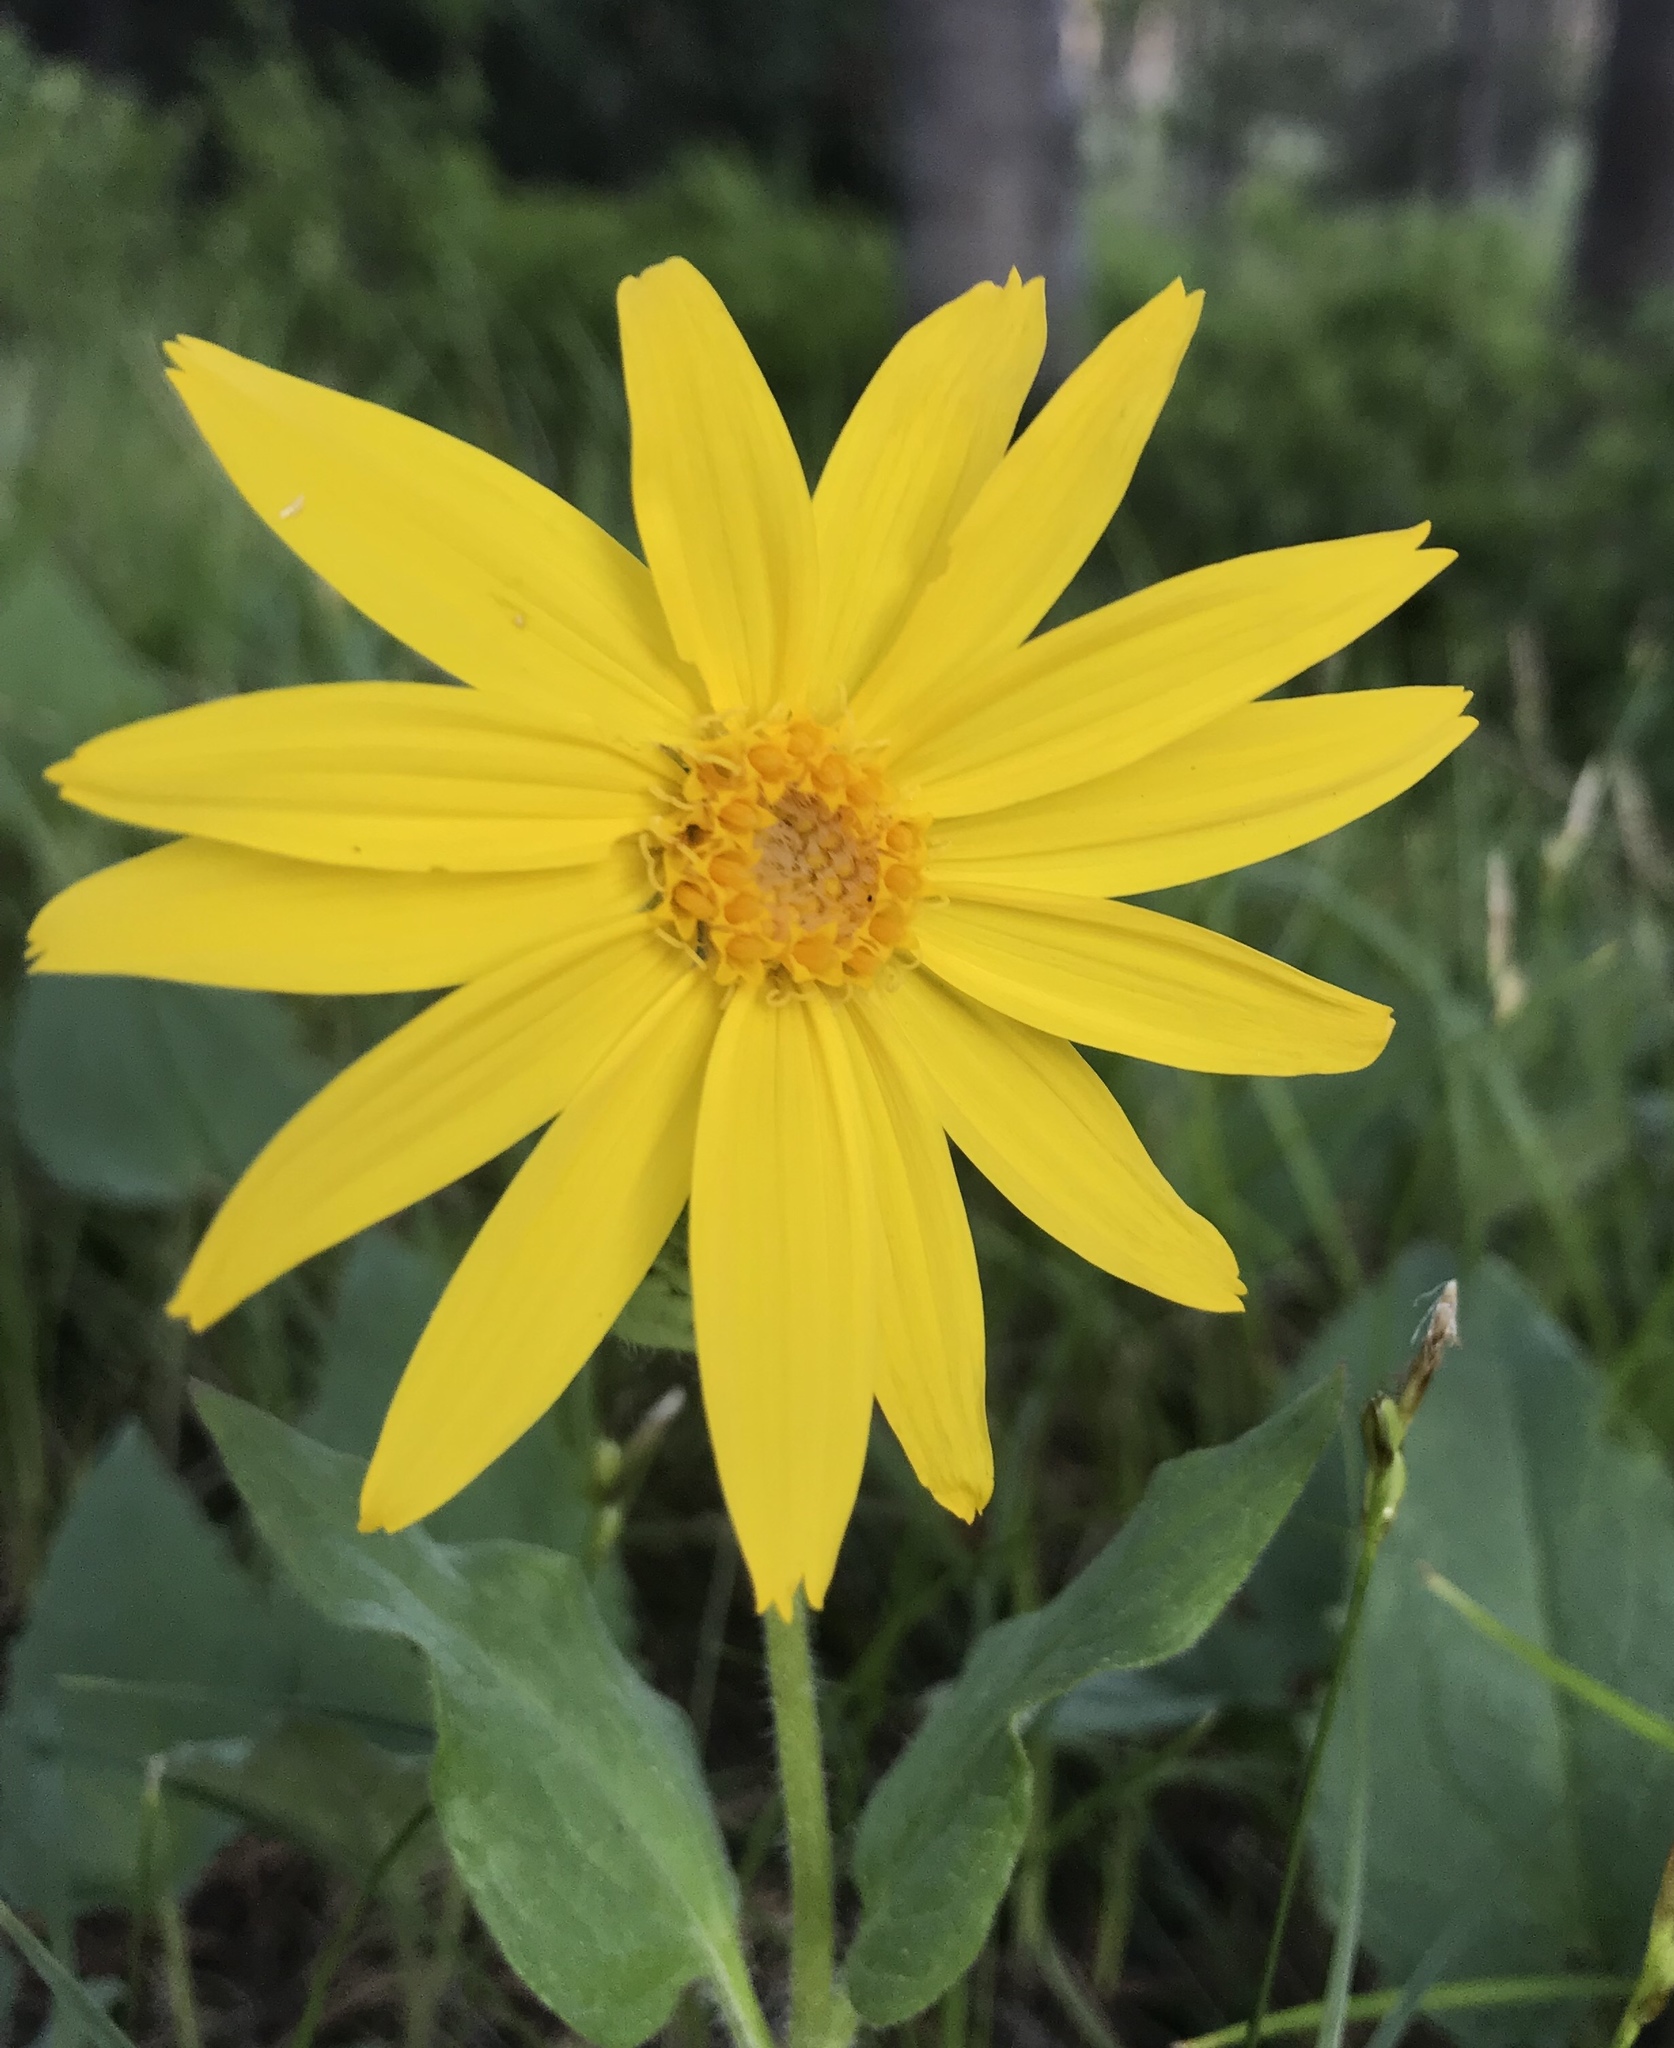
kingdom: Plantae
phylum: Tracheophyta
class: Magnoliopsida
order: Asterales
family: Asteraceae
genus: Arnica
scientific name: Arnica cordifolia
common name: Heart-leaf arnica
